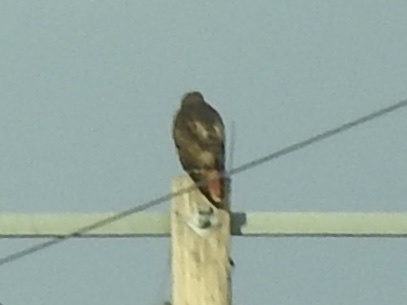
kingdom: Animalia
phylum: Chordata
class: Aves
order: Accipitriformes
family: Accipitridae
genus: Buteo
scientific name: Buteo jamaicensis
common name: Red-tailed hawk
